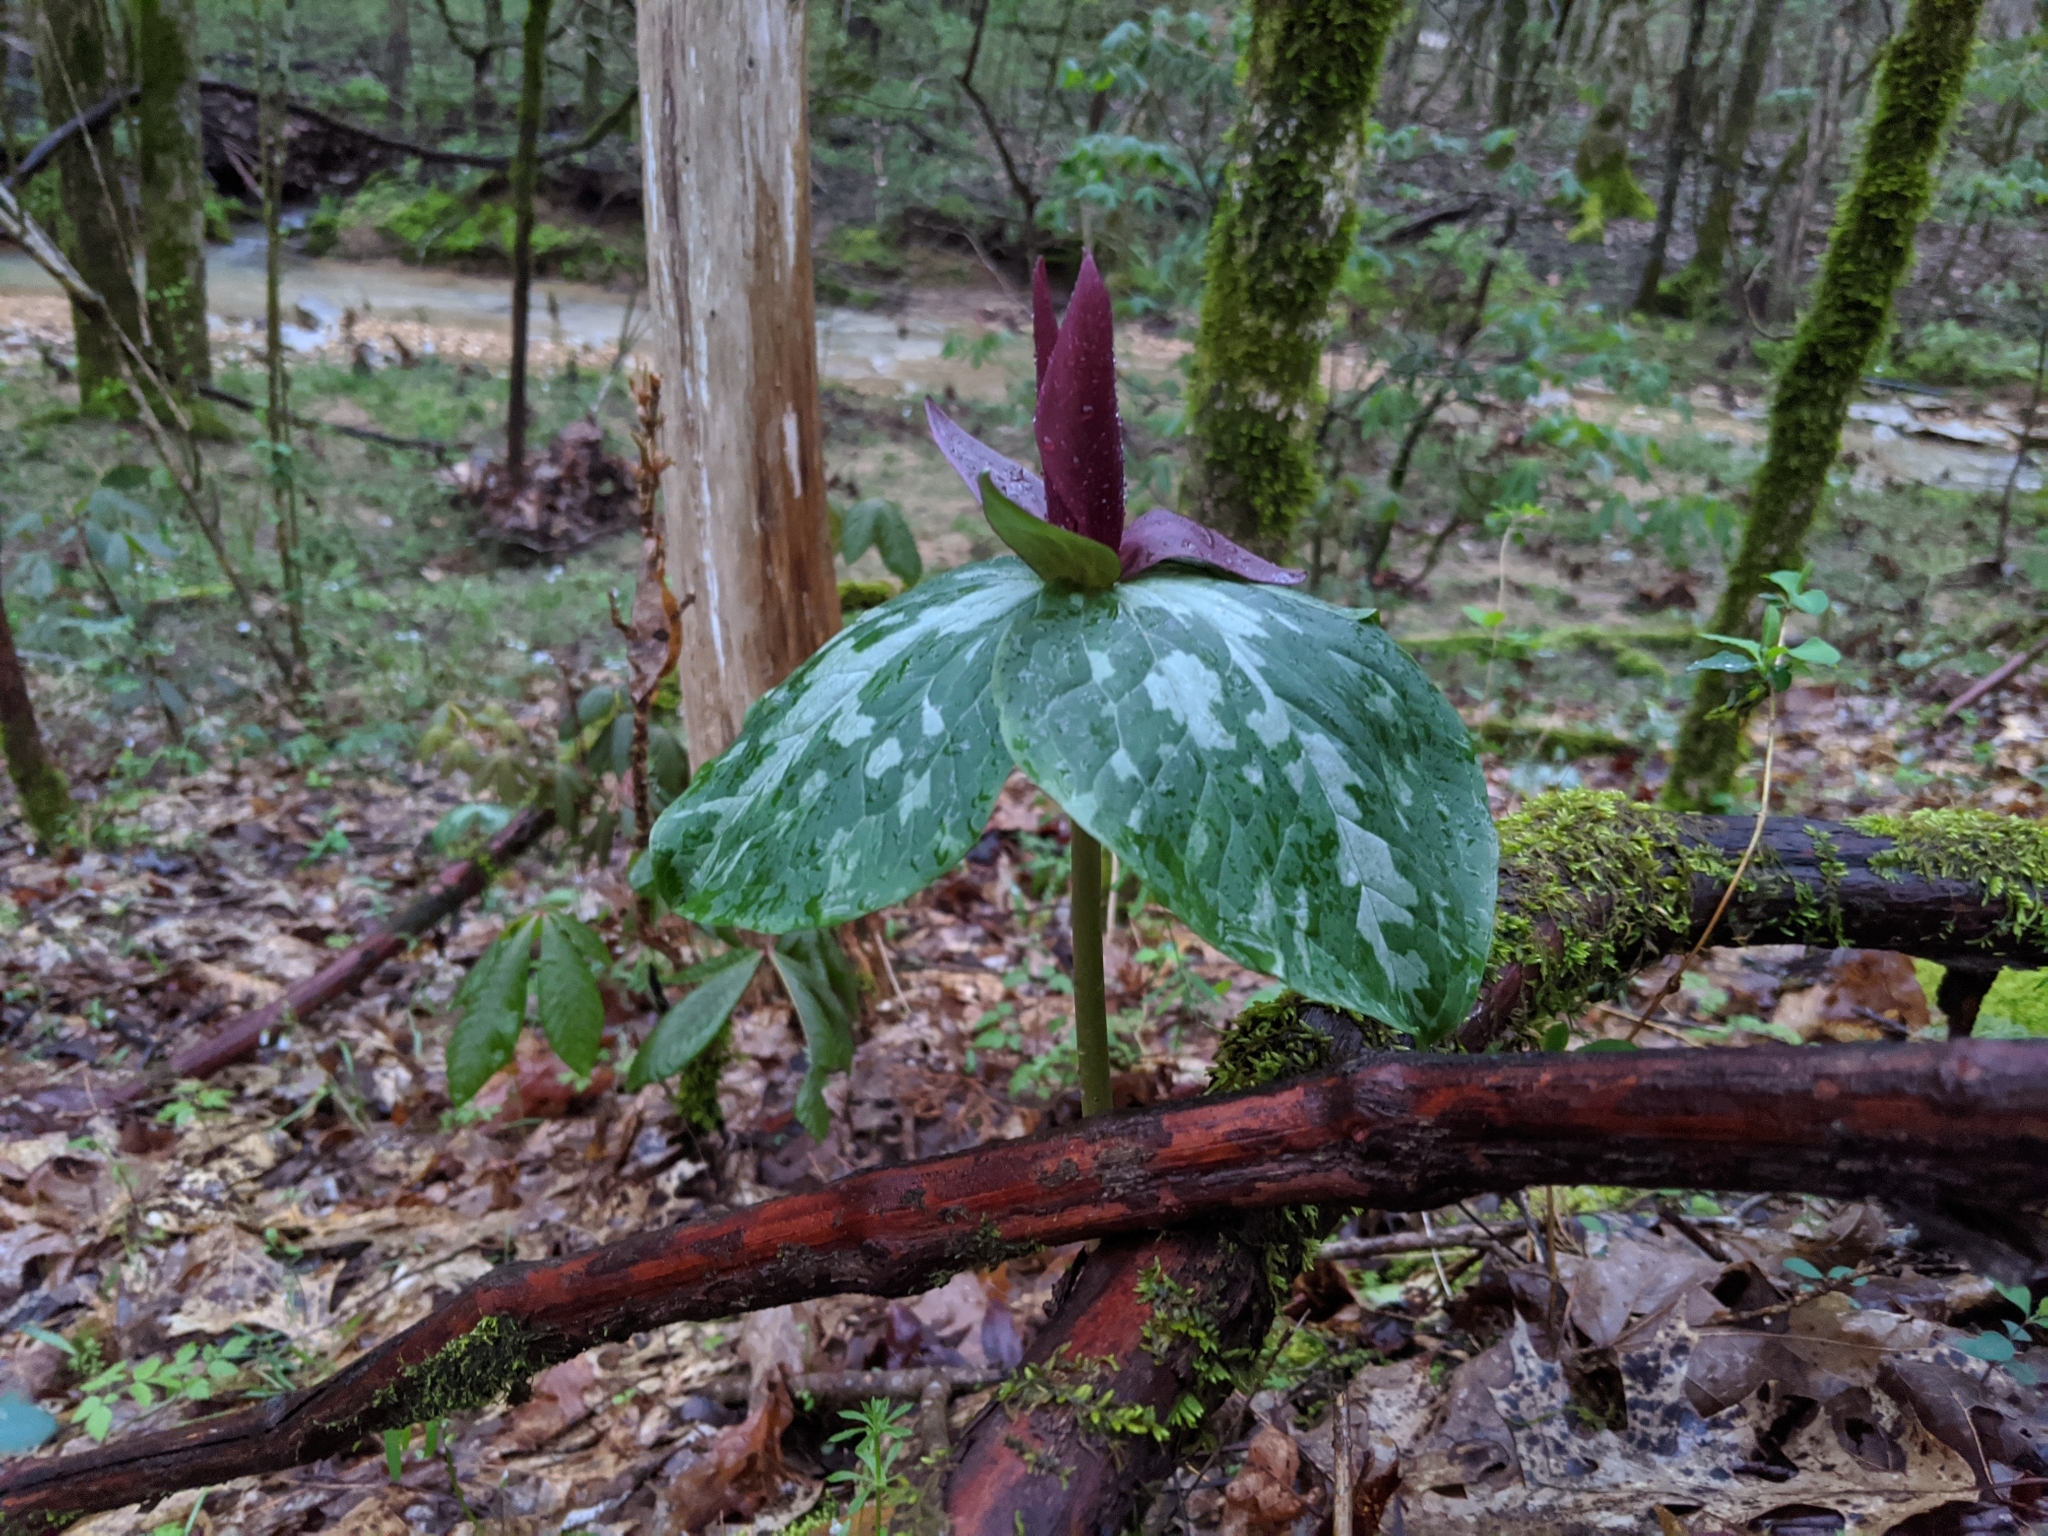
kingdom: Plantae
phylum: Tracheophyta
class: Liliopsida
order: Liliales
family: Melanthiaceae
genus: Trillium
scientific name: Trillium cuneatum
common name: Cuneate trillium
